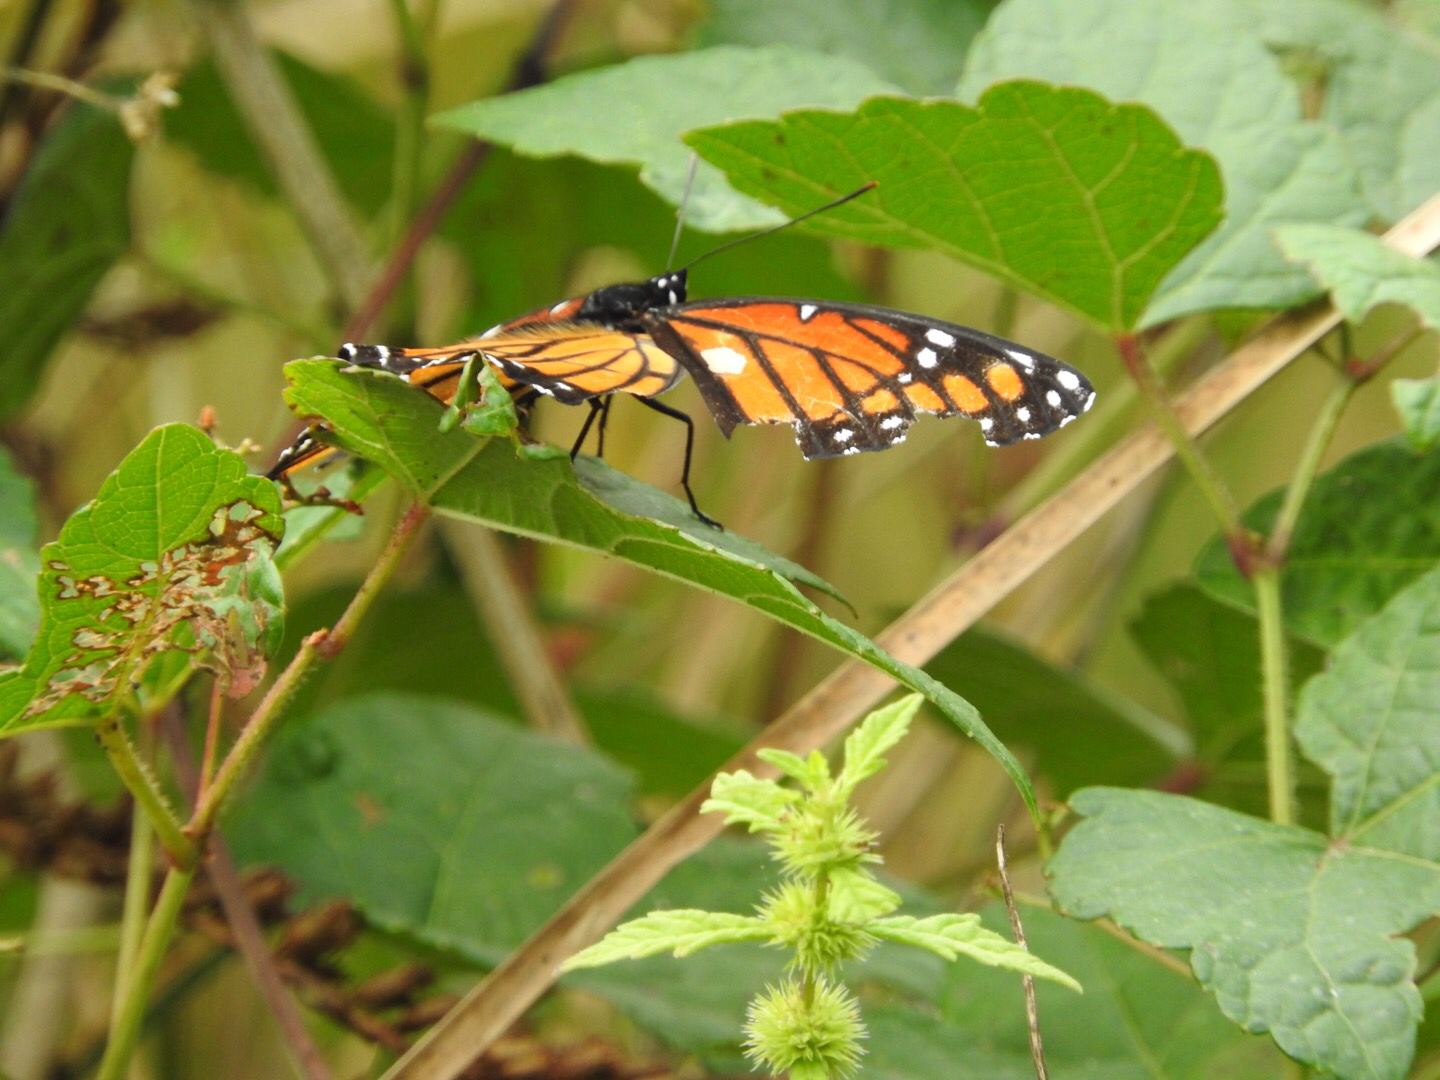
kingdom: Animalia
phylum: Arthropoda
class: Insecta
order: Lepidoptera
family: Nymphalidae
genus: Limenitis
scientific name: Limenitis archippus
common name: Viceroy
